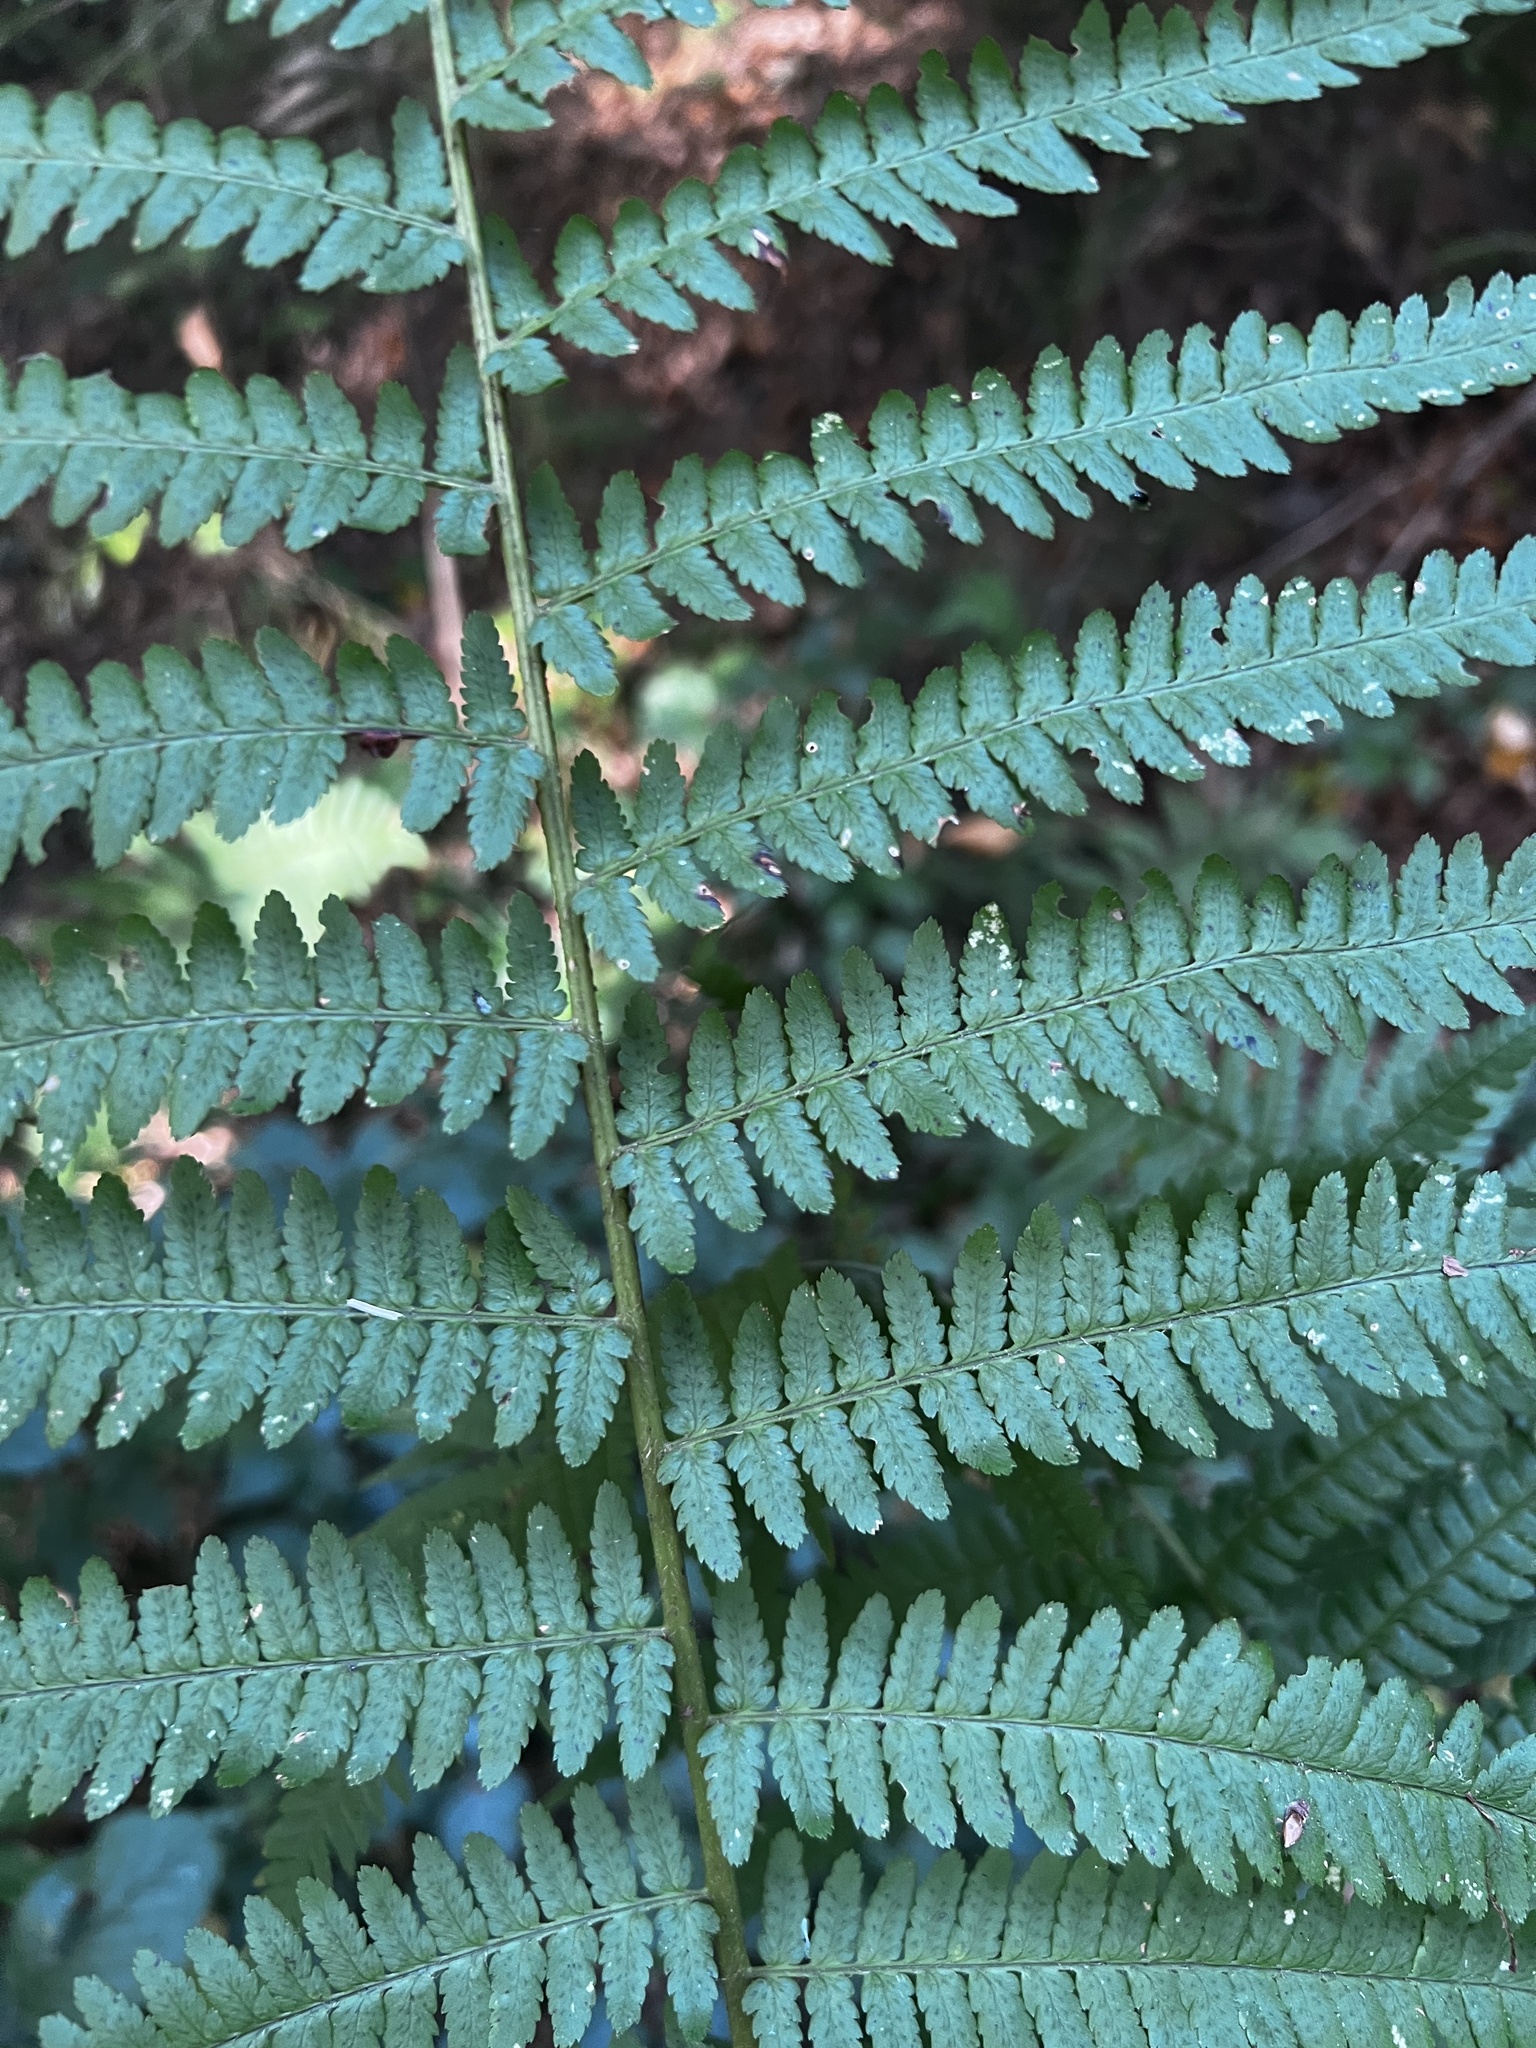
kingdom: Plantae
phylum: Tracheophyta
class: Polypodiopsida
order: Polypodiales
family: Dryopteridaceae
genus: Dryopteris
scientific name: Dryopteris filix-mas
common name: Male fern
